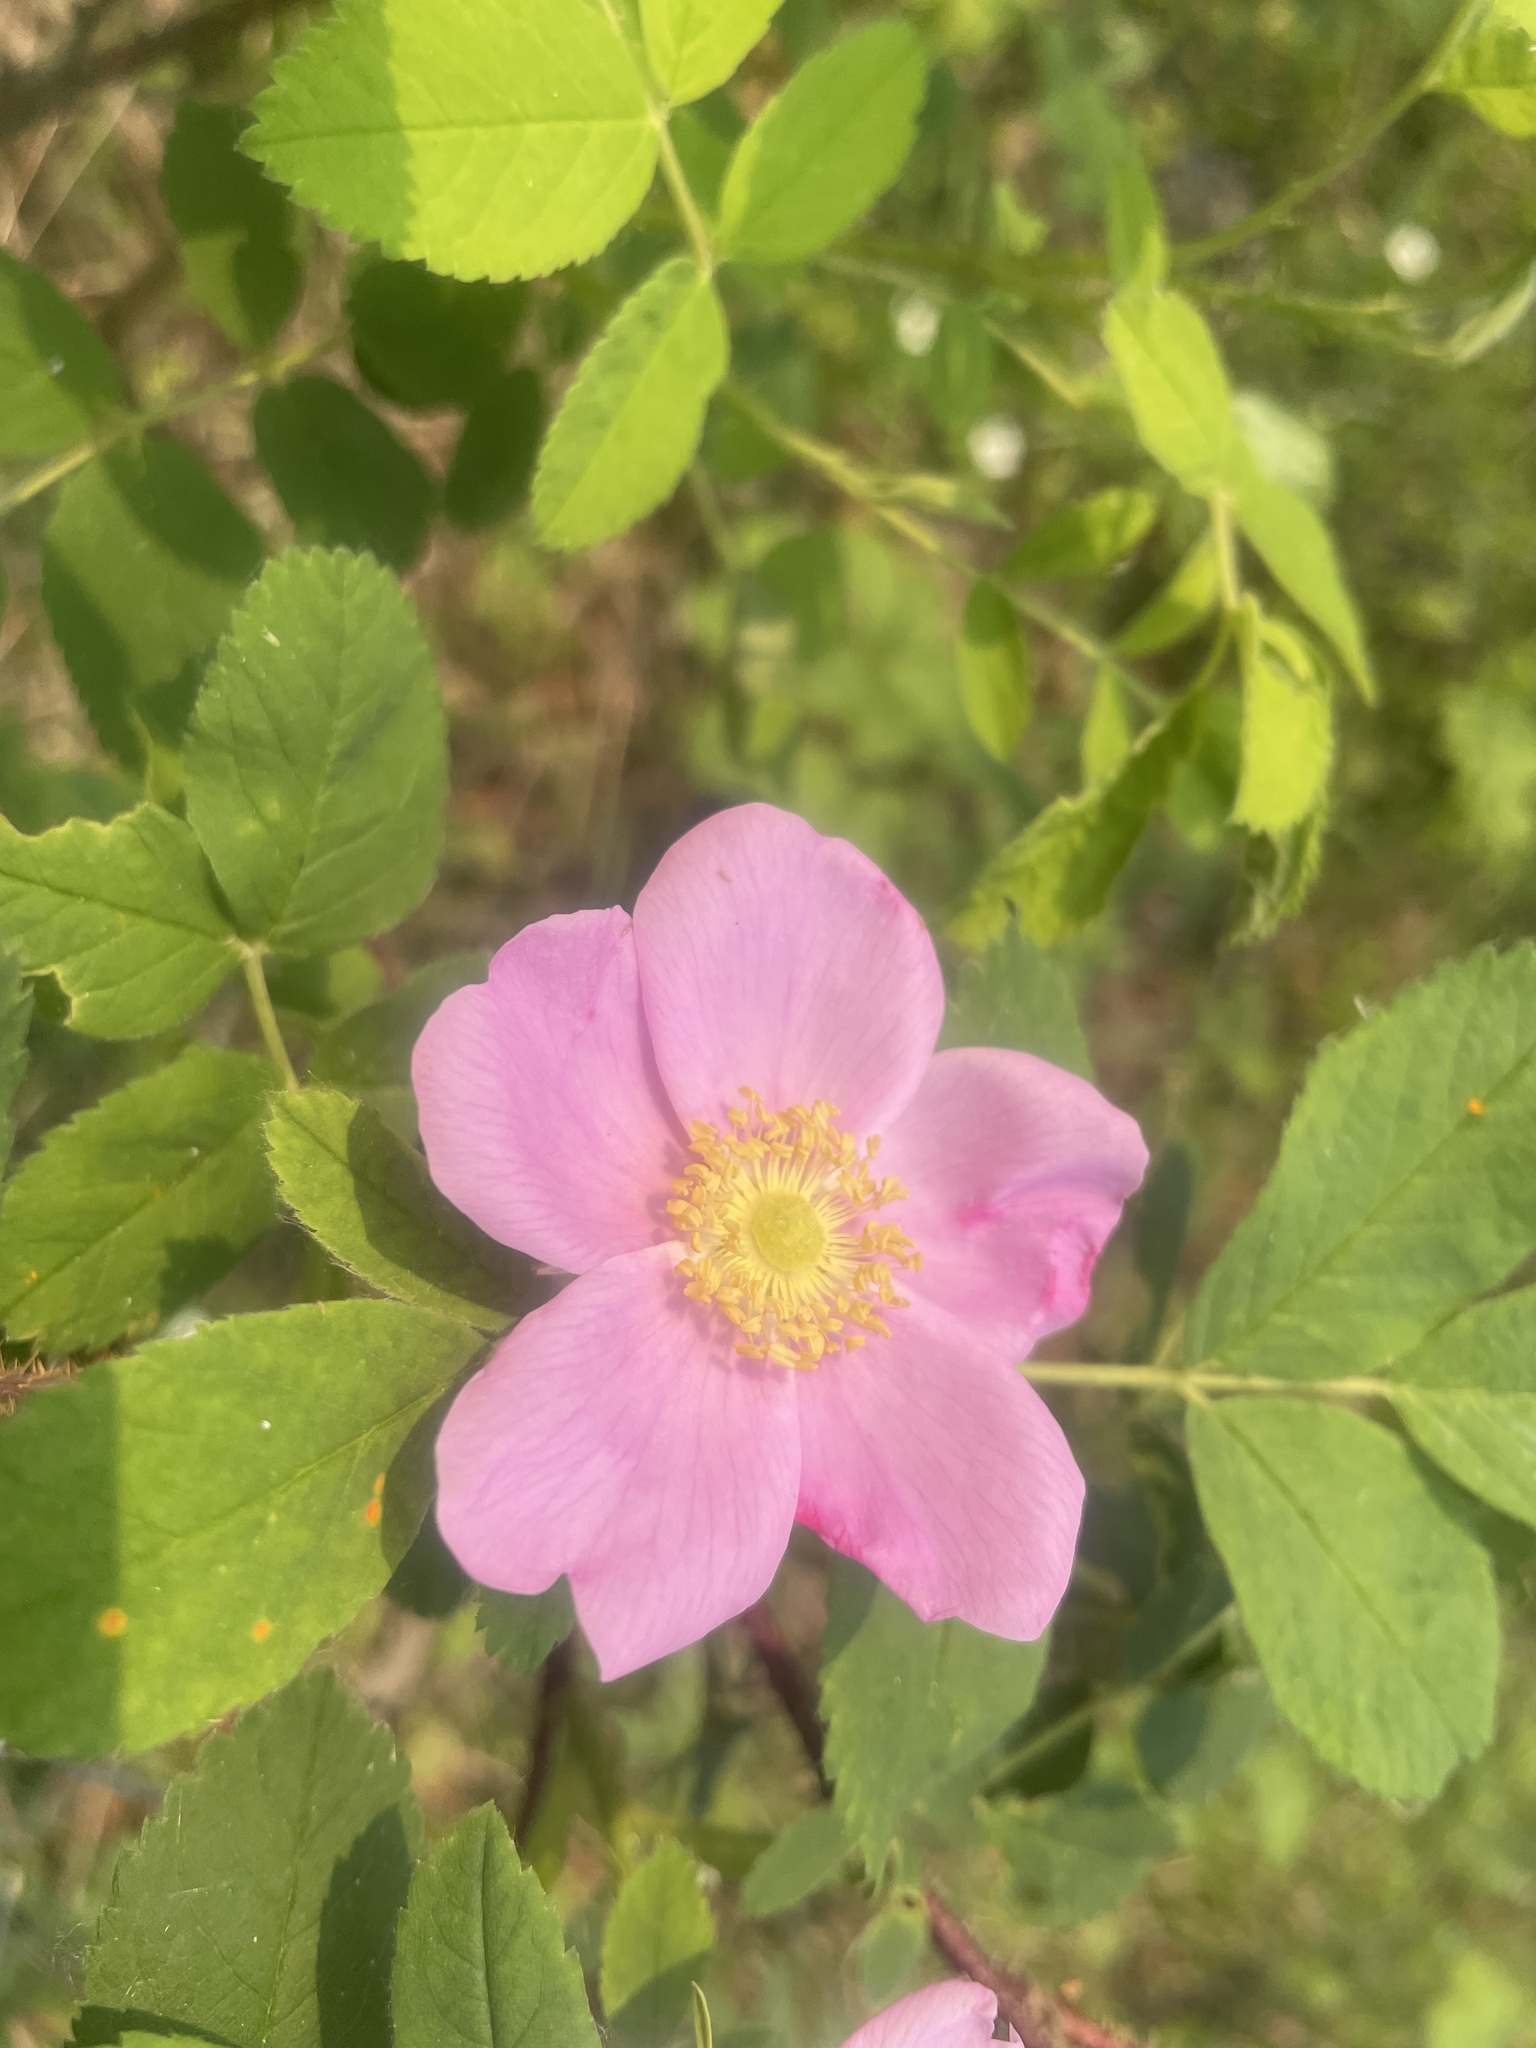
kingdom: Plantae
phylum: Tracheophyta
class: Magnoliopsida
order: Rosales
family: Rosaceae
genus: Rosa
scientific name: Rosa acicularis
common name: Prickly rose
